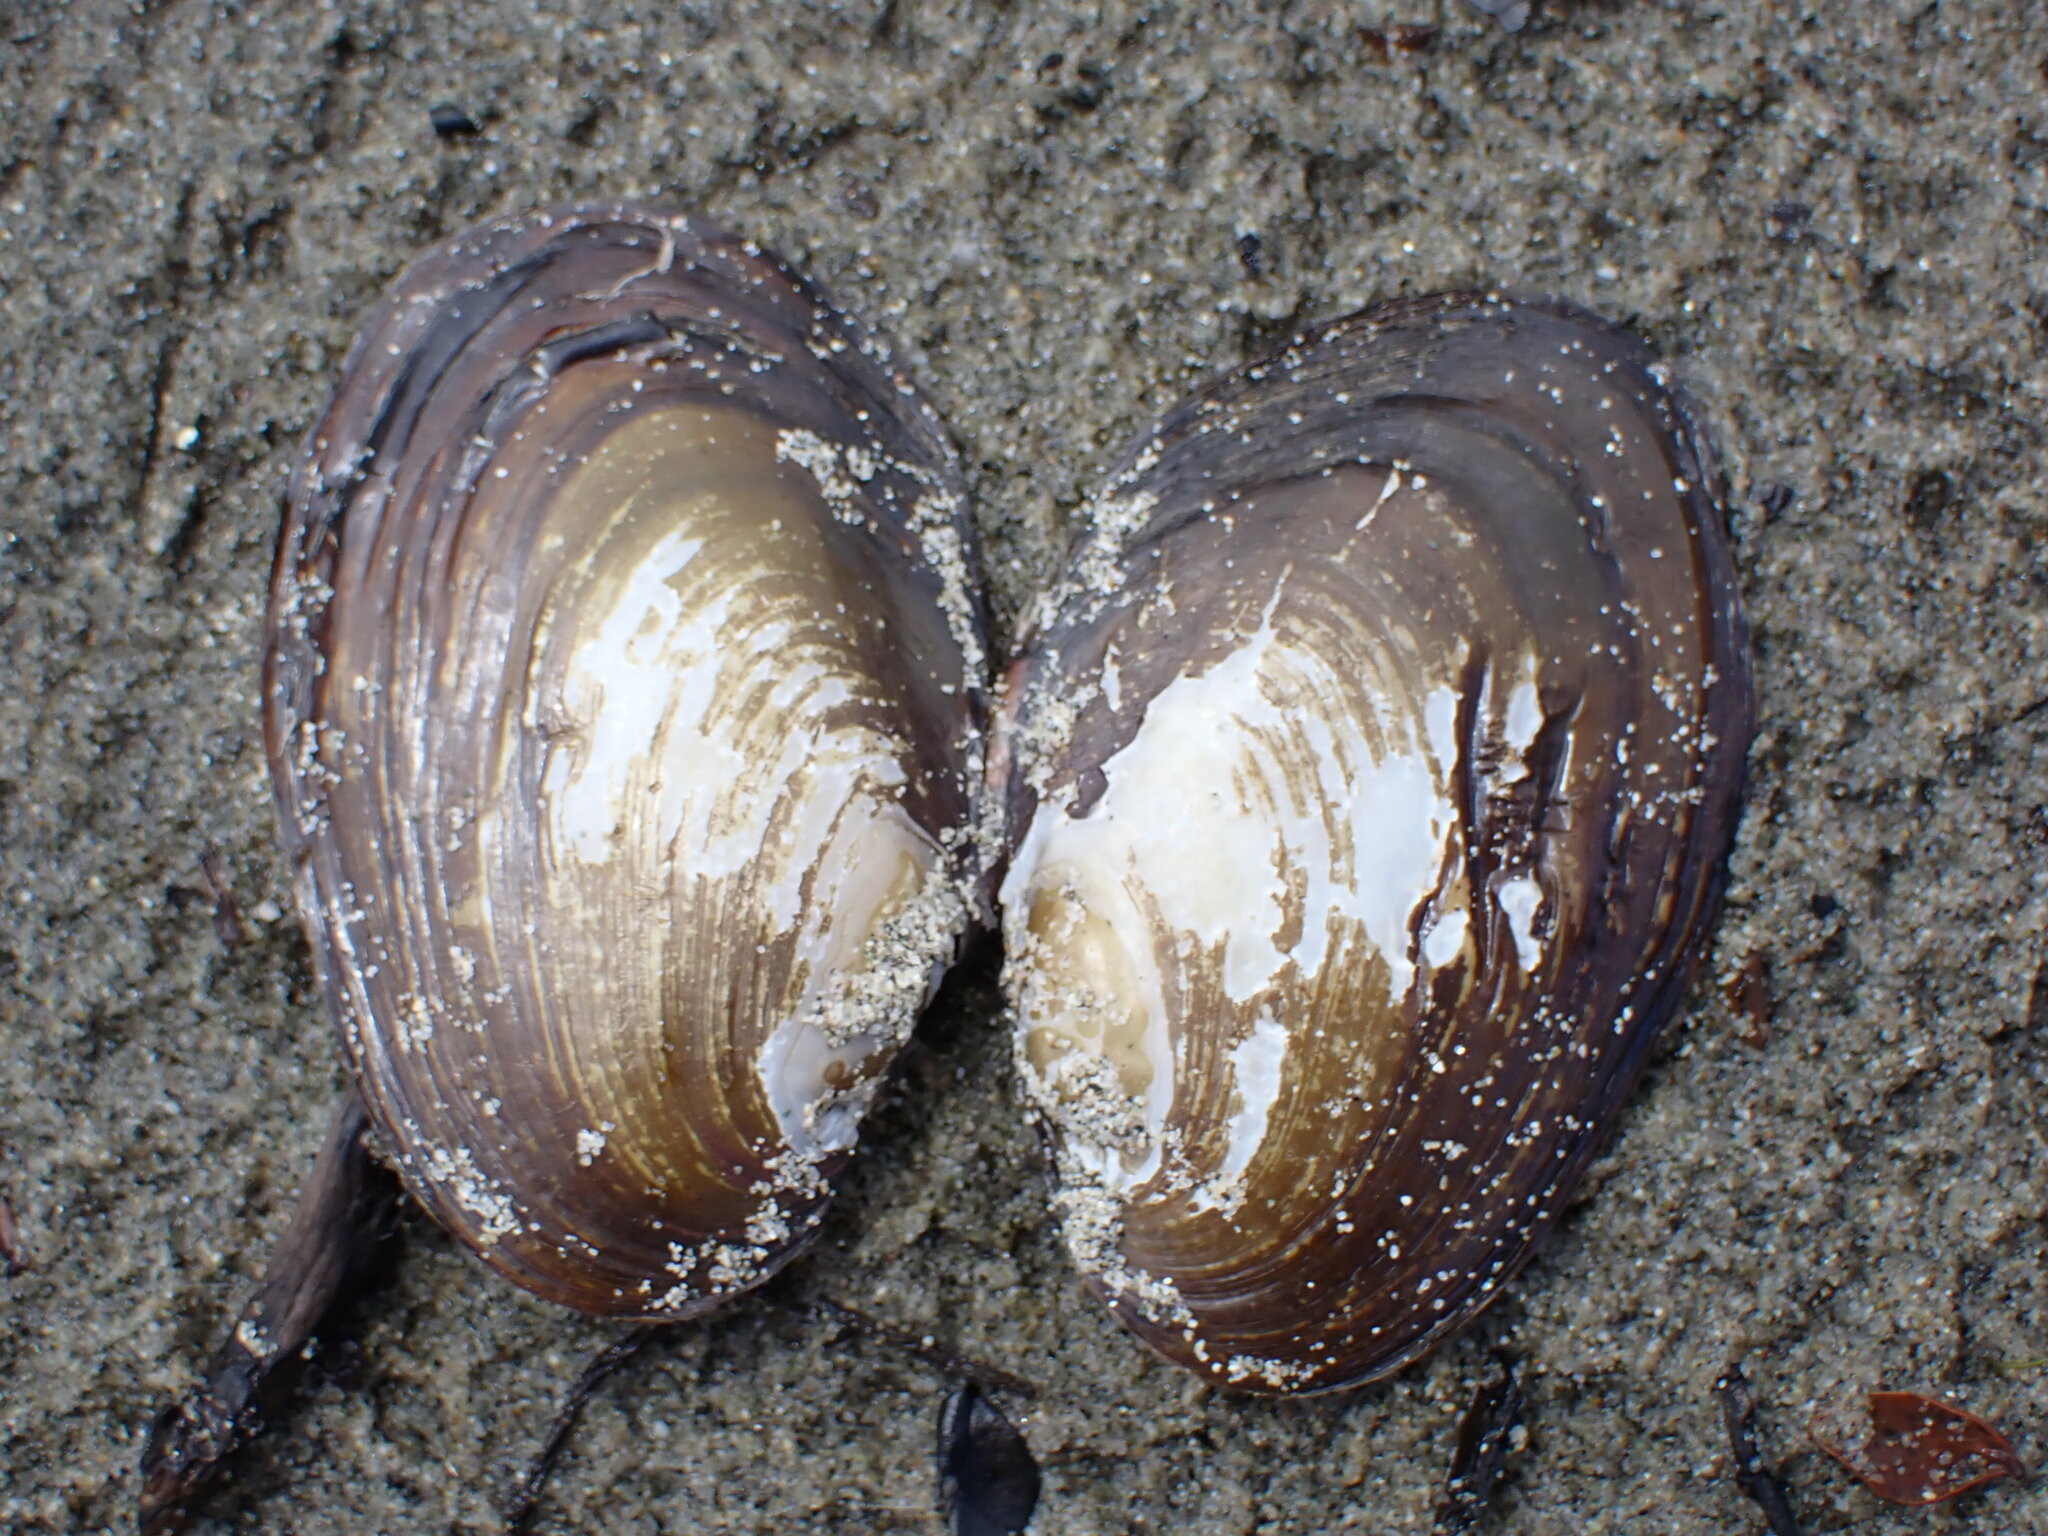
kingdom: Animalia
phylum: Mollusca
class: Bivalvia
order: Unionida
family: Hyriidae
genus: Echyridella
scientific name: Echyridella menziesii
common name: New zealand freshwater mussel
